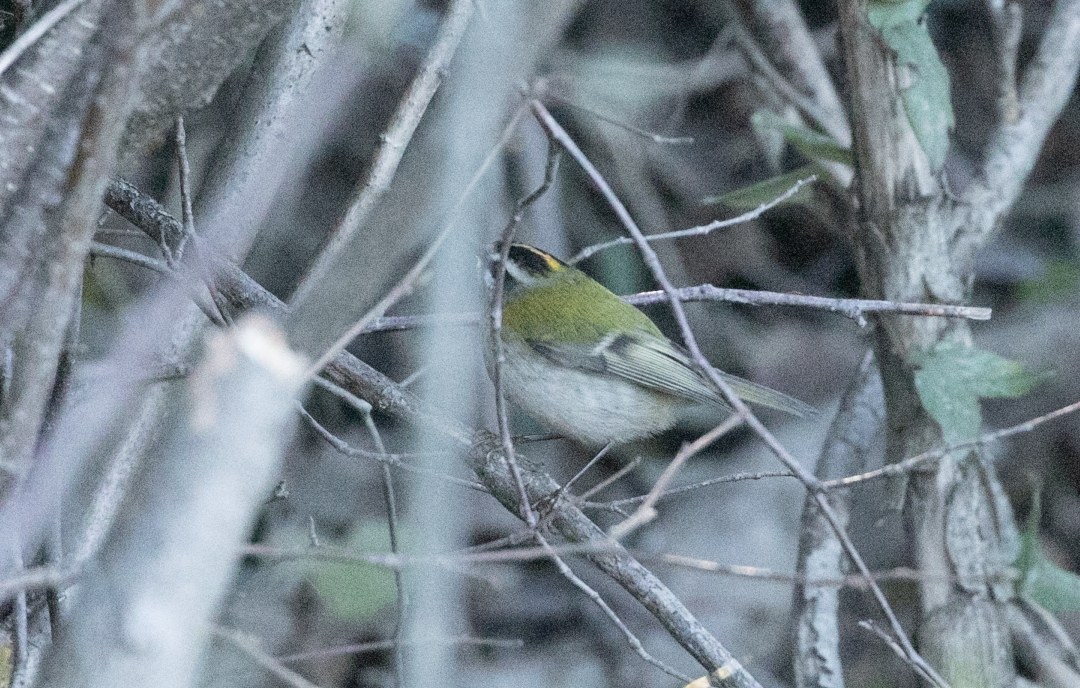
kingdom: Animalia
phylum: Chordata
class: Aves
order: Passeriformes
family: Regulidae
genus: Regulus
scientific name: Regulus ignicapilla
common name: Firecrest
